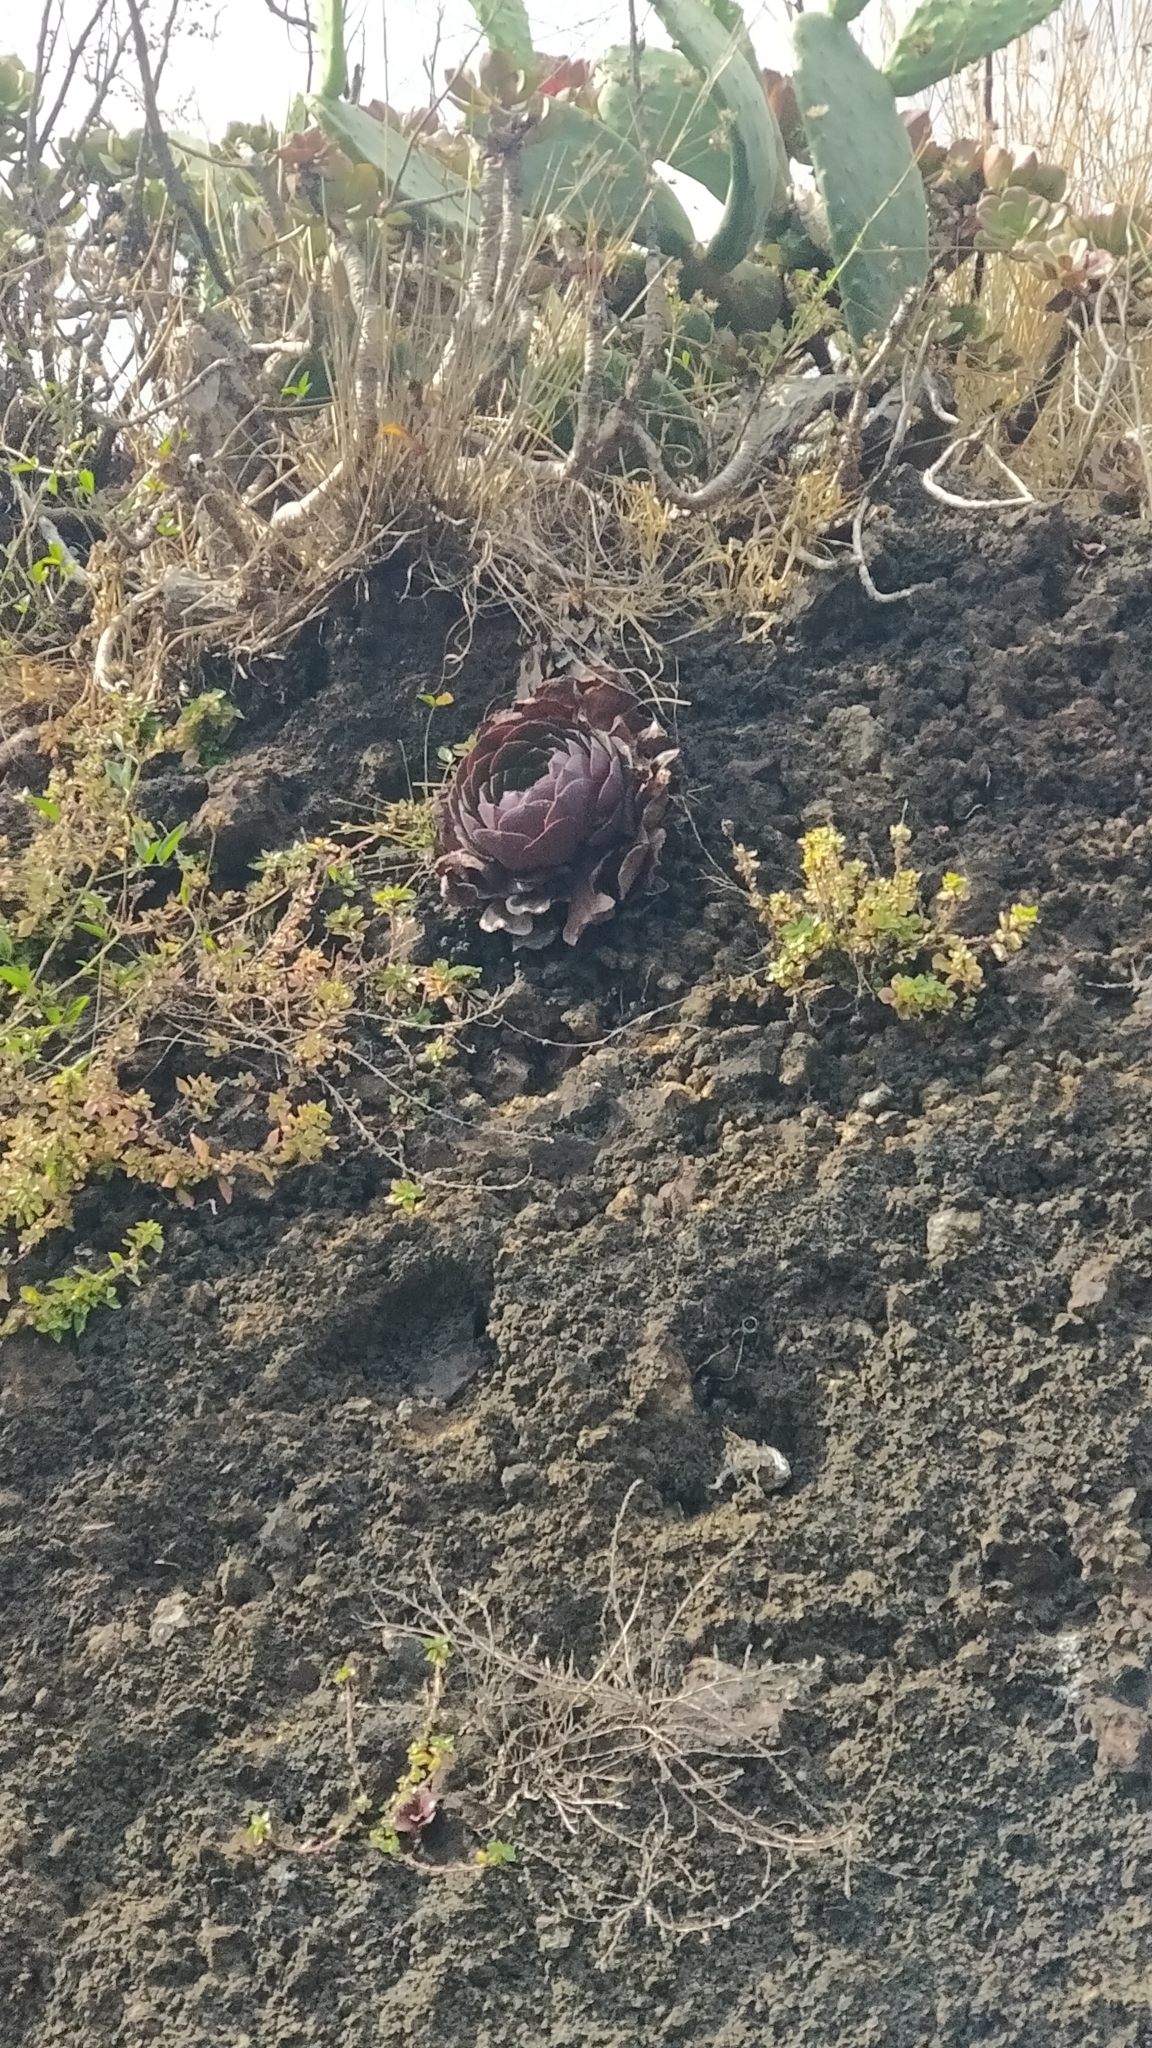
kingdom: Plantae
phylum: Tracheophyta
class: Magnoliopsida
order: Saxifragales
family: Crassulaceae
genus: Aeonium
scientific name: Aeonium glandulosum
